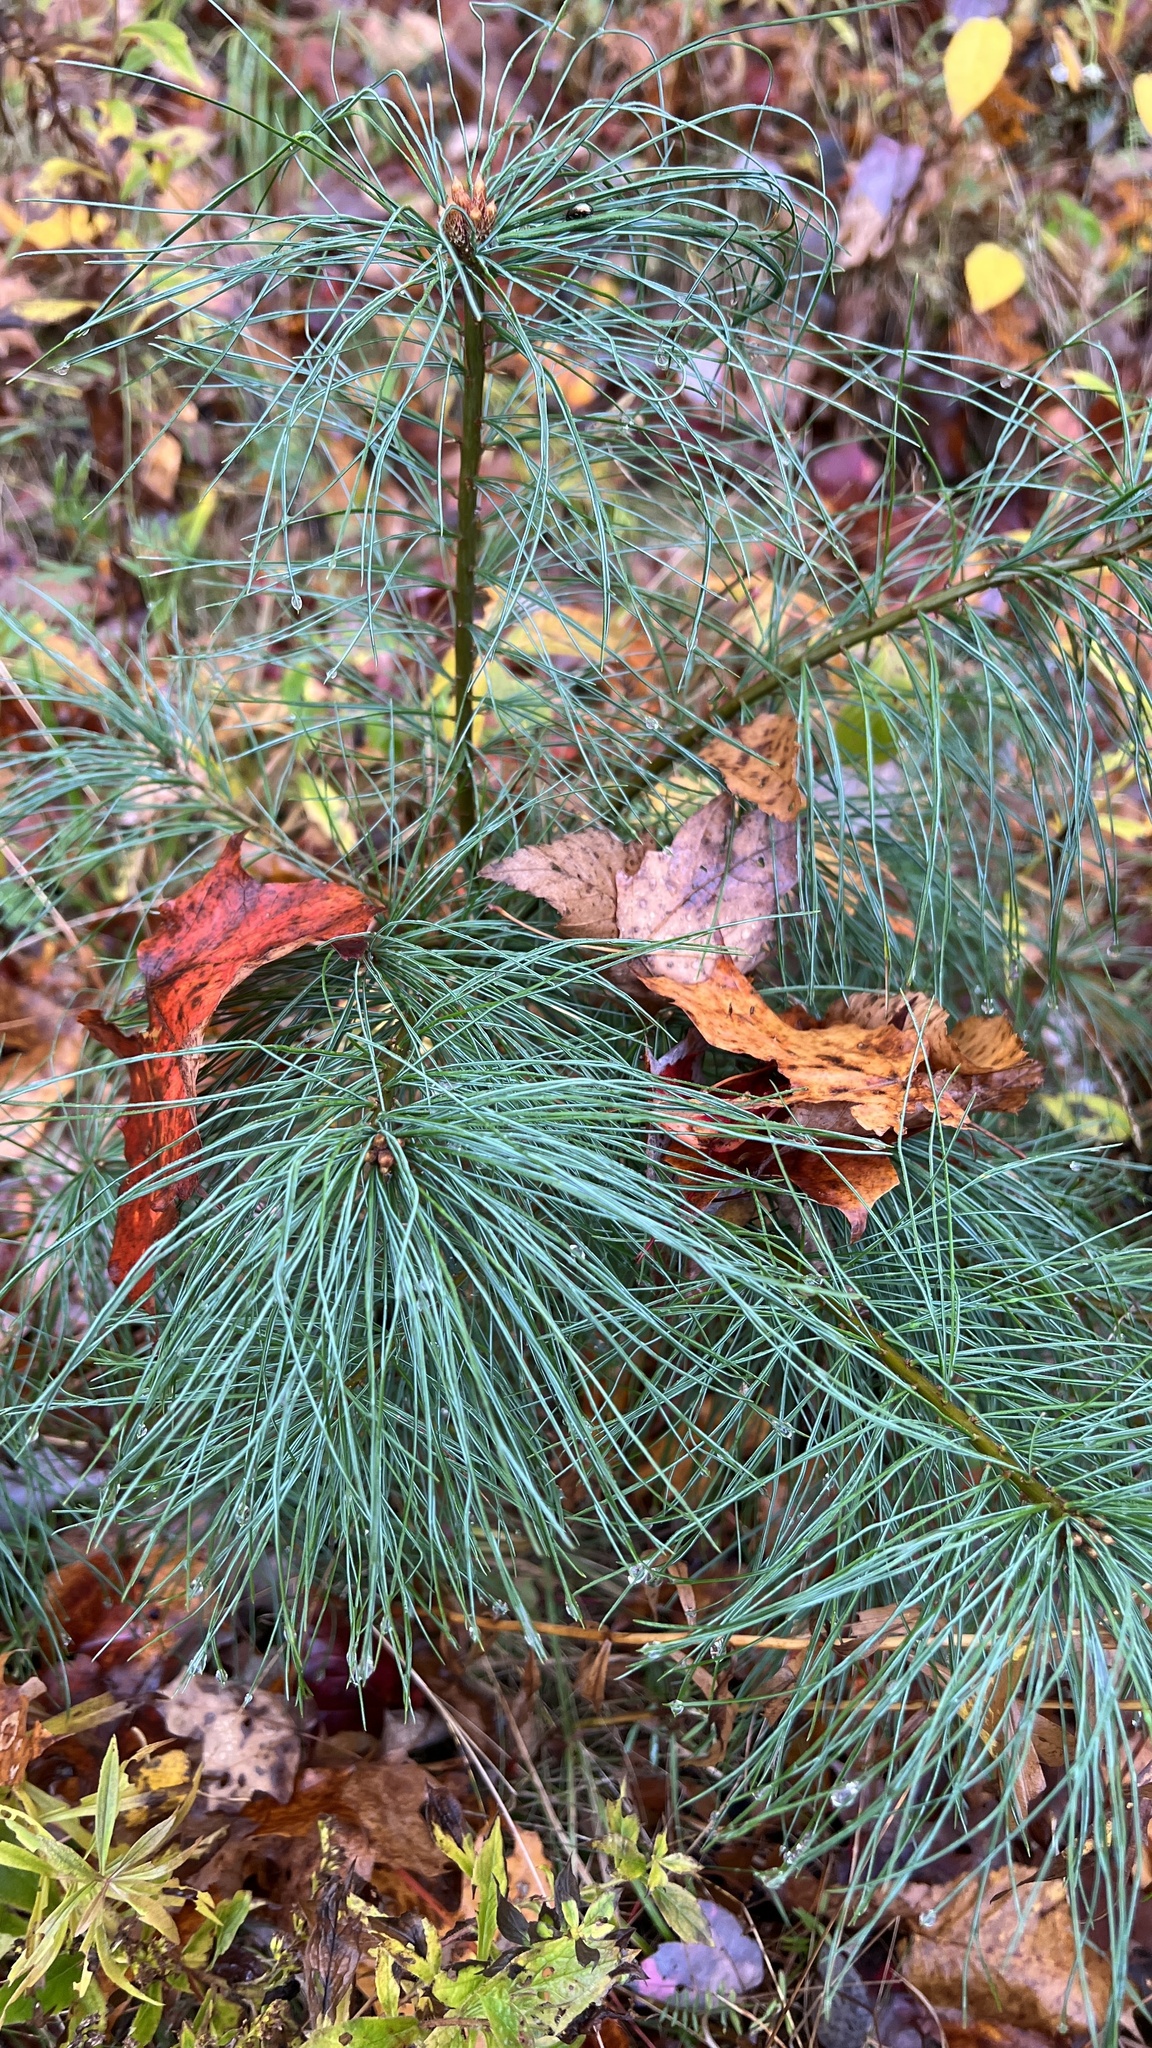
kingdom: Plantae
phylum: Tracheophyta
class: Pinopsida
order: Pinales
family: Pinaceae
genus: Pinus
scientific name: Pinus strobus
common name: Weymouth pine
